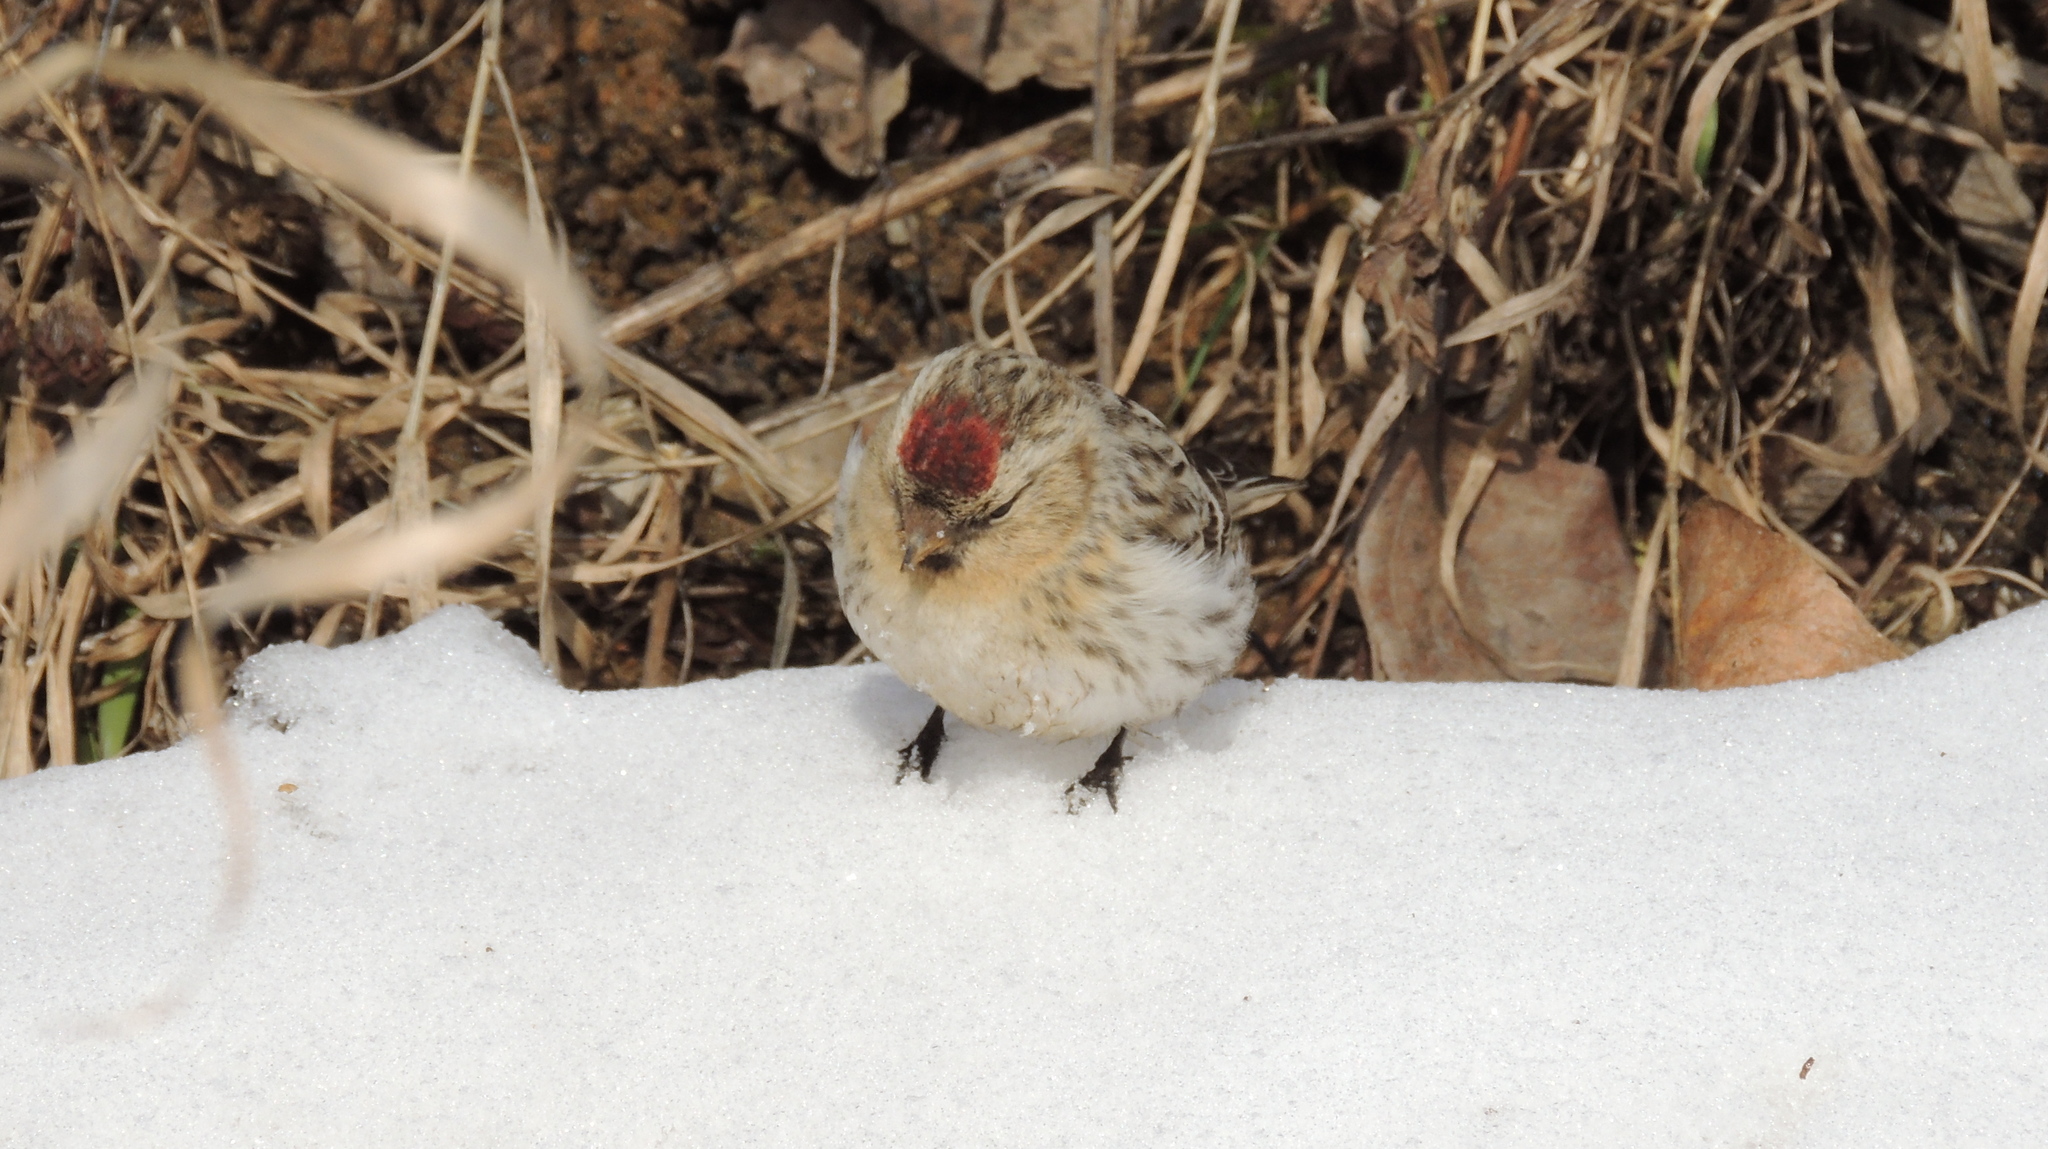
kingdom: Animalia
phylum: Chordata
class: Aves
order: Passeriformes
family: Fringillidae
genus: Acanthis
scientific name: Acanthis flammea
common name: Common redpoll
